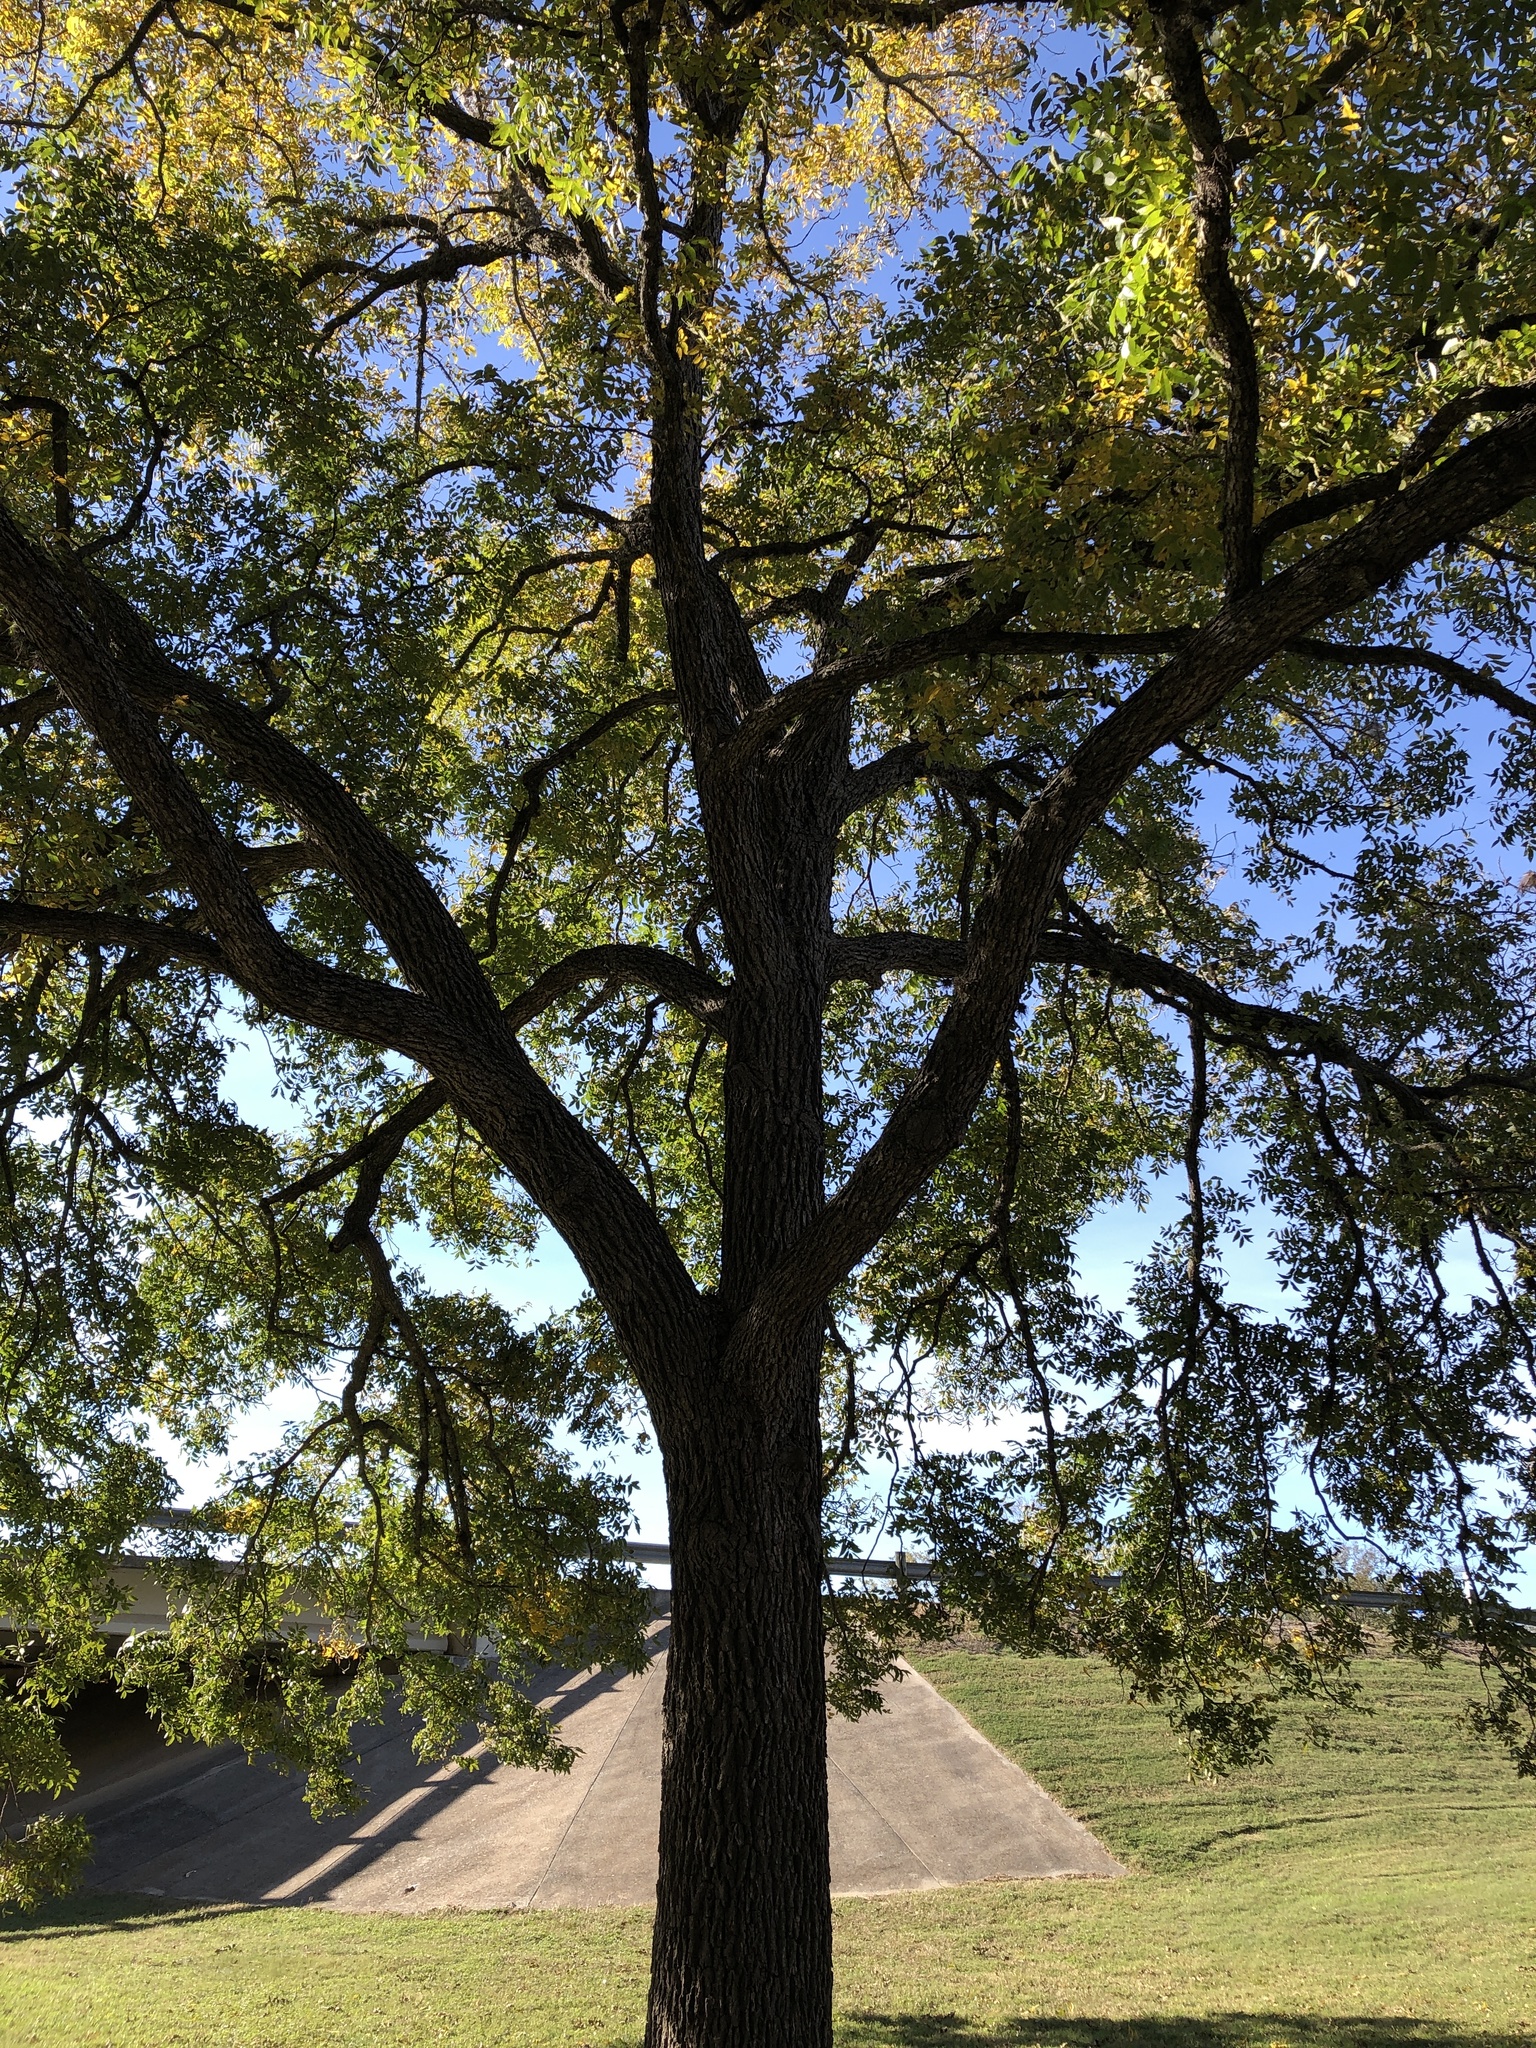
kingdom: Plantae
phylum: Tracheophyta
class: Magnoliopsida
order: Fagales
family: Juglandaceae
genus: Carya
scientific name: Carya illinoinensis
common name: Pecan
